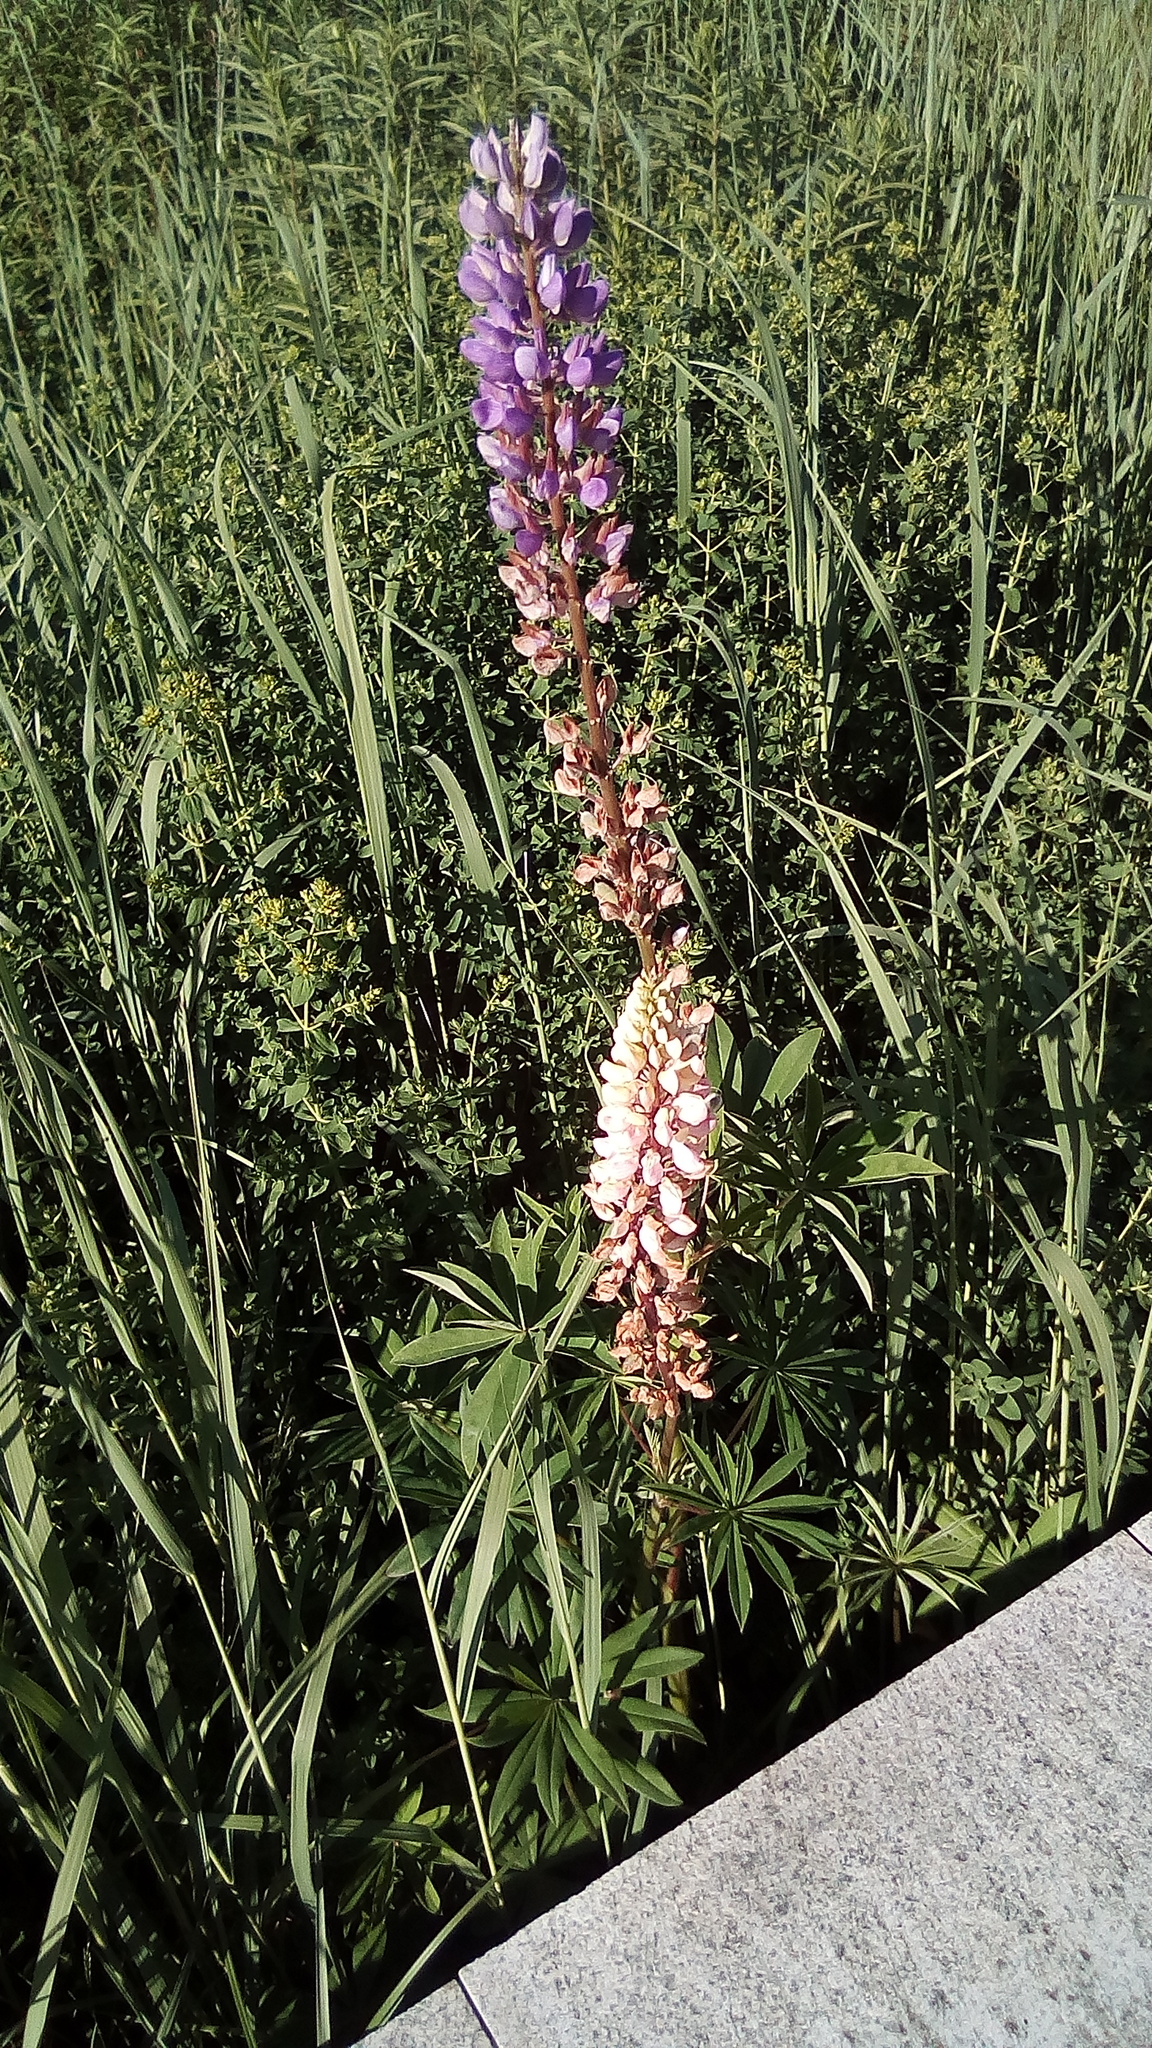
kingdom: Plantae
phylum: Tracheophyta
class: Magnoliopsida
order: Fabales
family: Fabaceae
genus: Lupinus
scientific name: Lupinus polyphyllus
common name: Garden lupin
